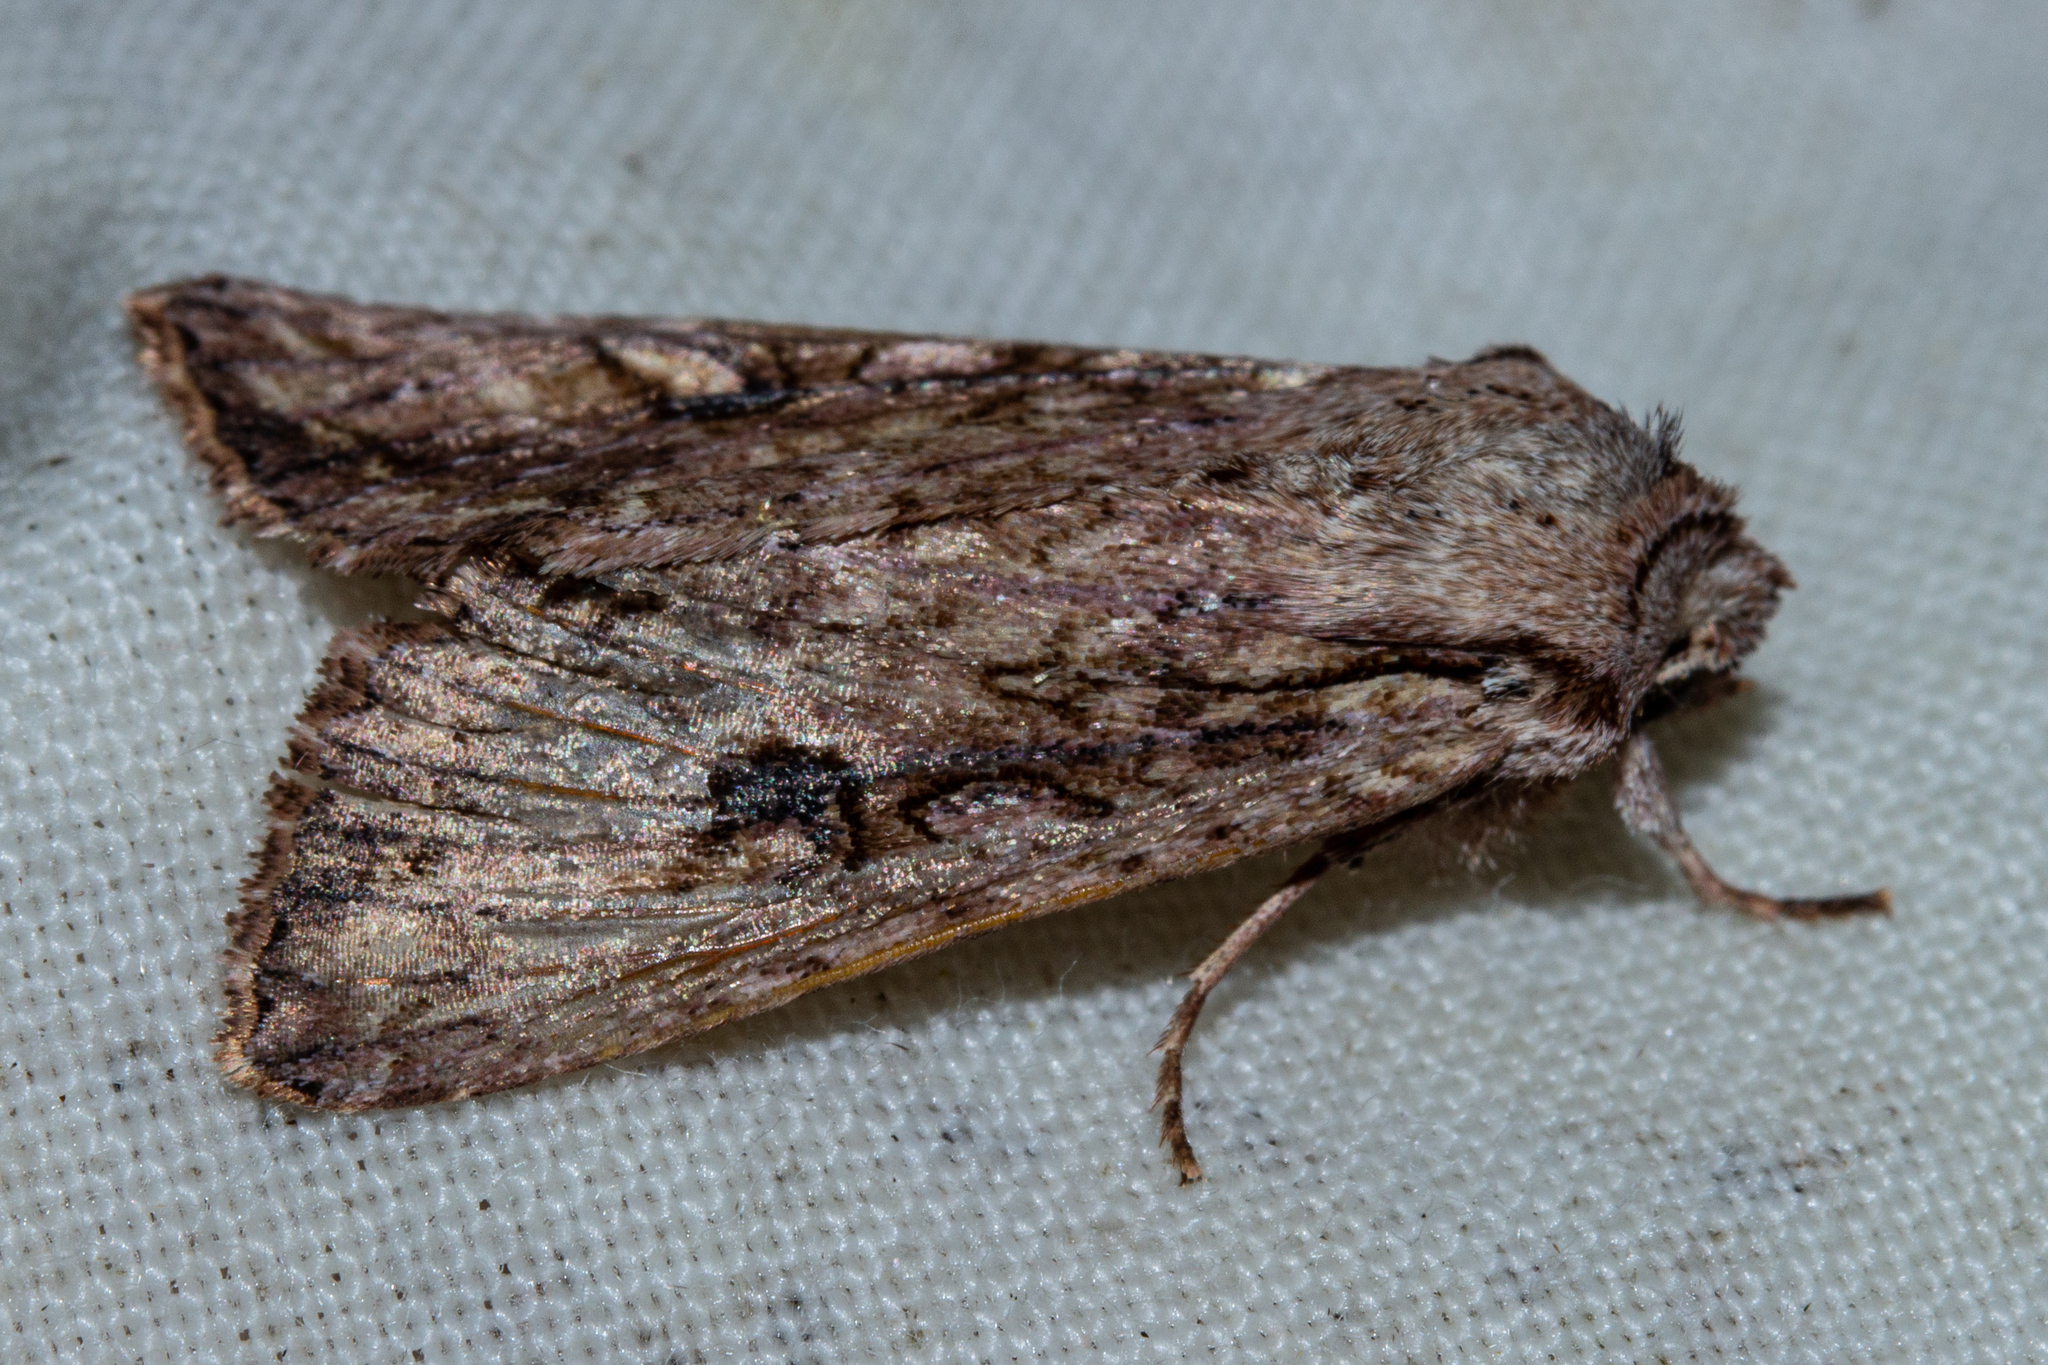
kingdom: Animalia
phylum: Arthropoda
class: Insecta
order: Lepidoptera
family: Noctuidae
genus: Ichneutica
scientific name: Ichneutica lignana
